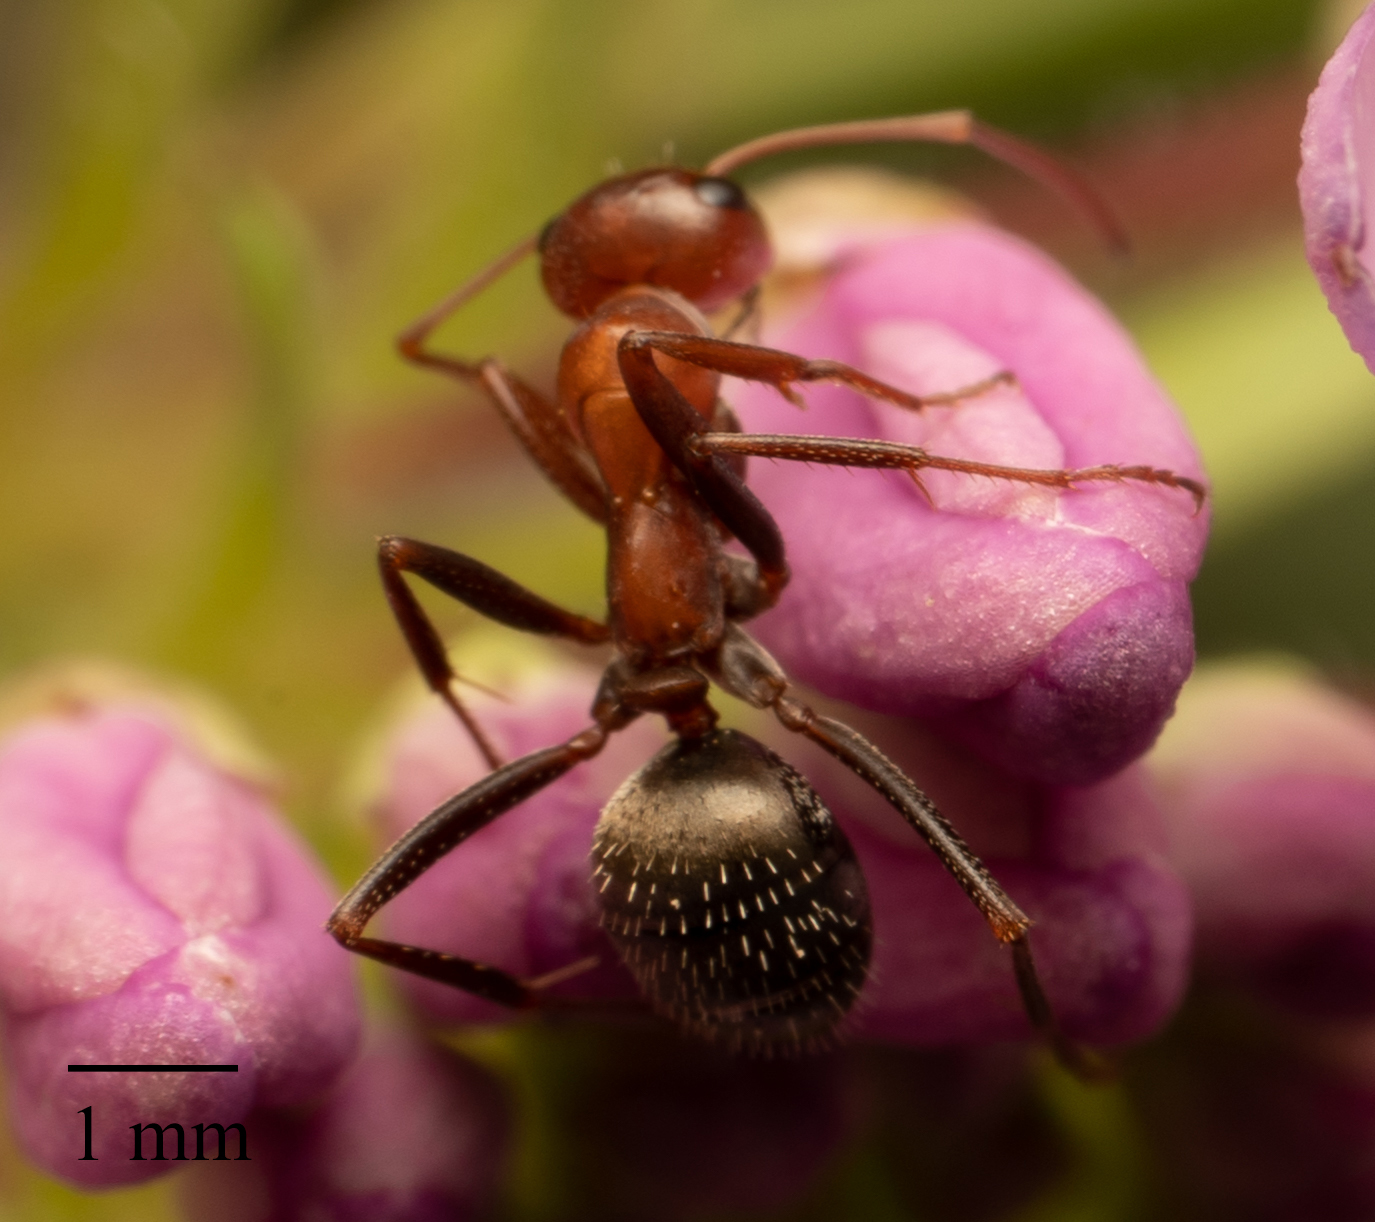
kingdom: Animalia
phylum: Arthropoda
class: Insecta
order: Hymenoptera
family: Formicidae
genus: Formica
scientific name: Formica obtusopilosa
